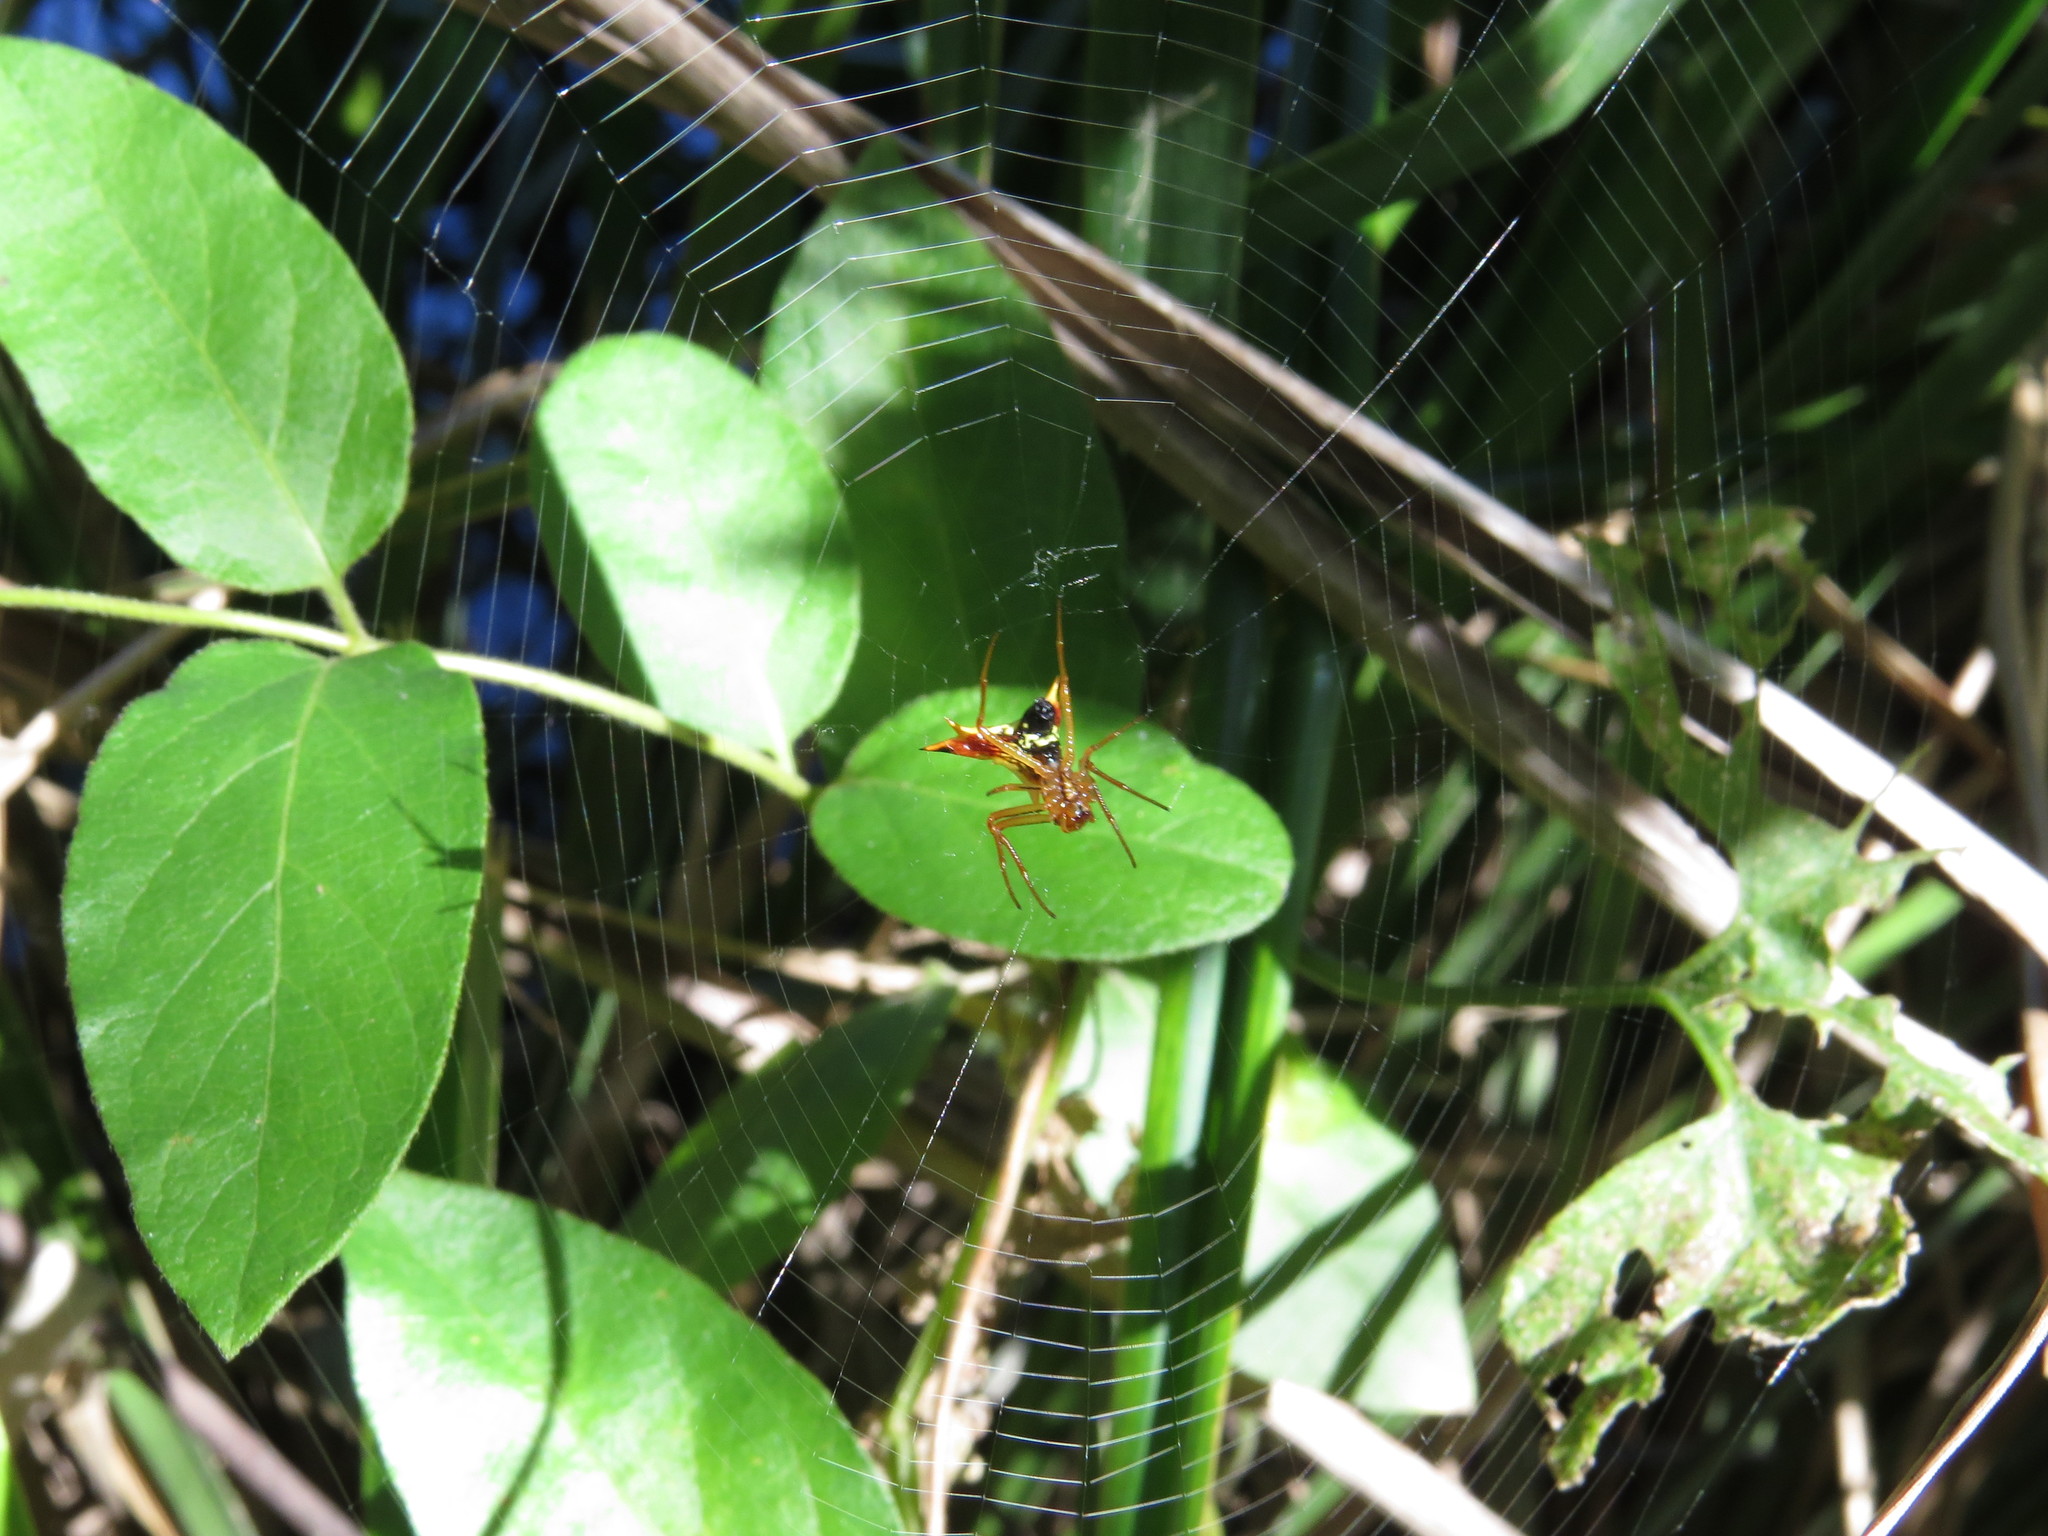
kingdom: Animalia
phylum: Arthropoda
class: Arachnida
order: Araneae
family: Araneidae
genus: Micrathena
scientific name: Micrathena furcata
